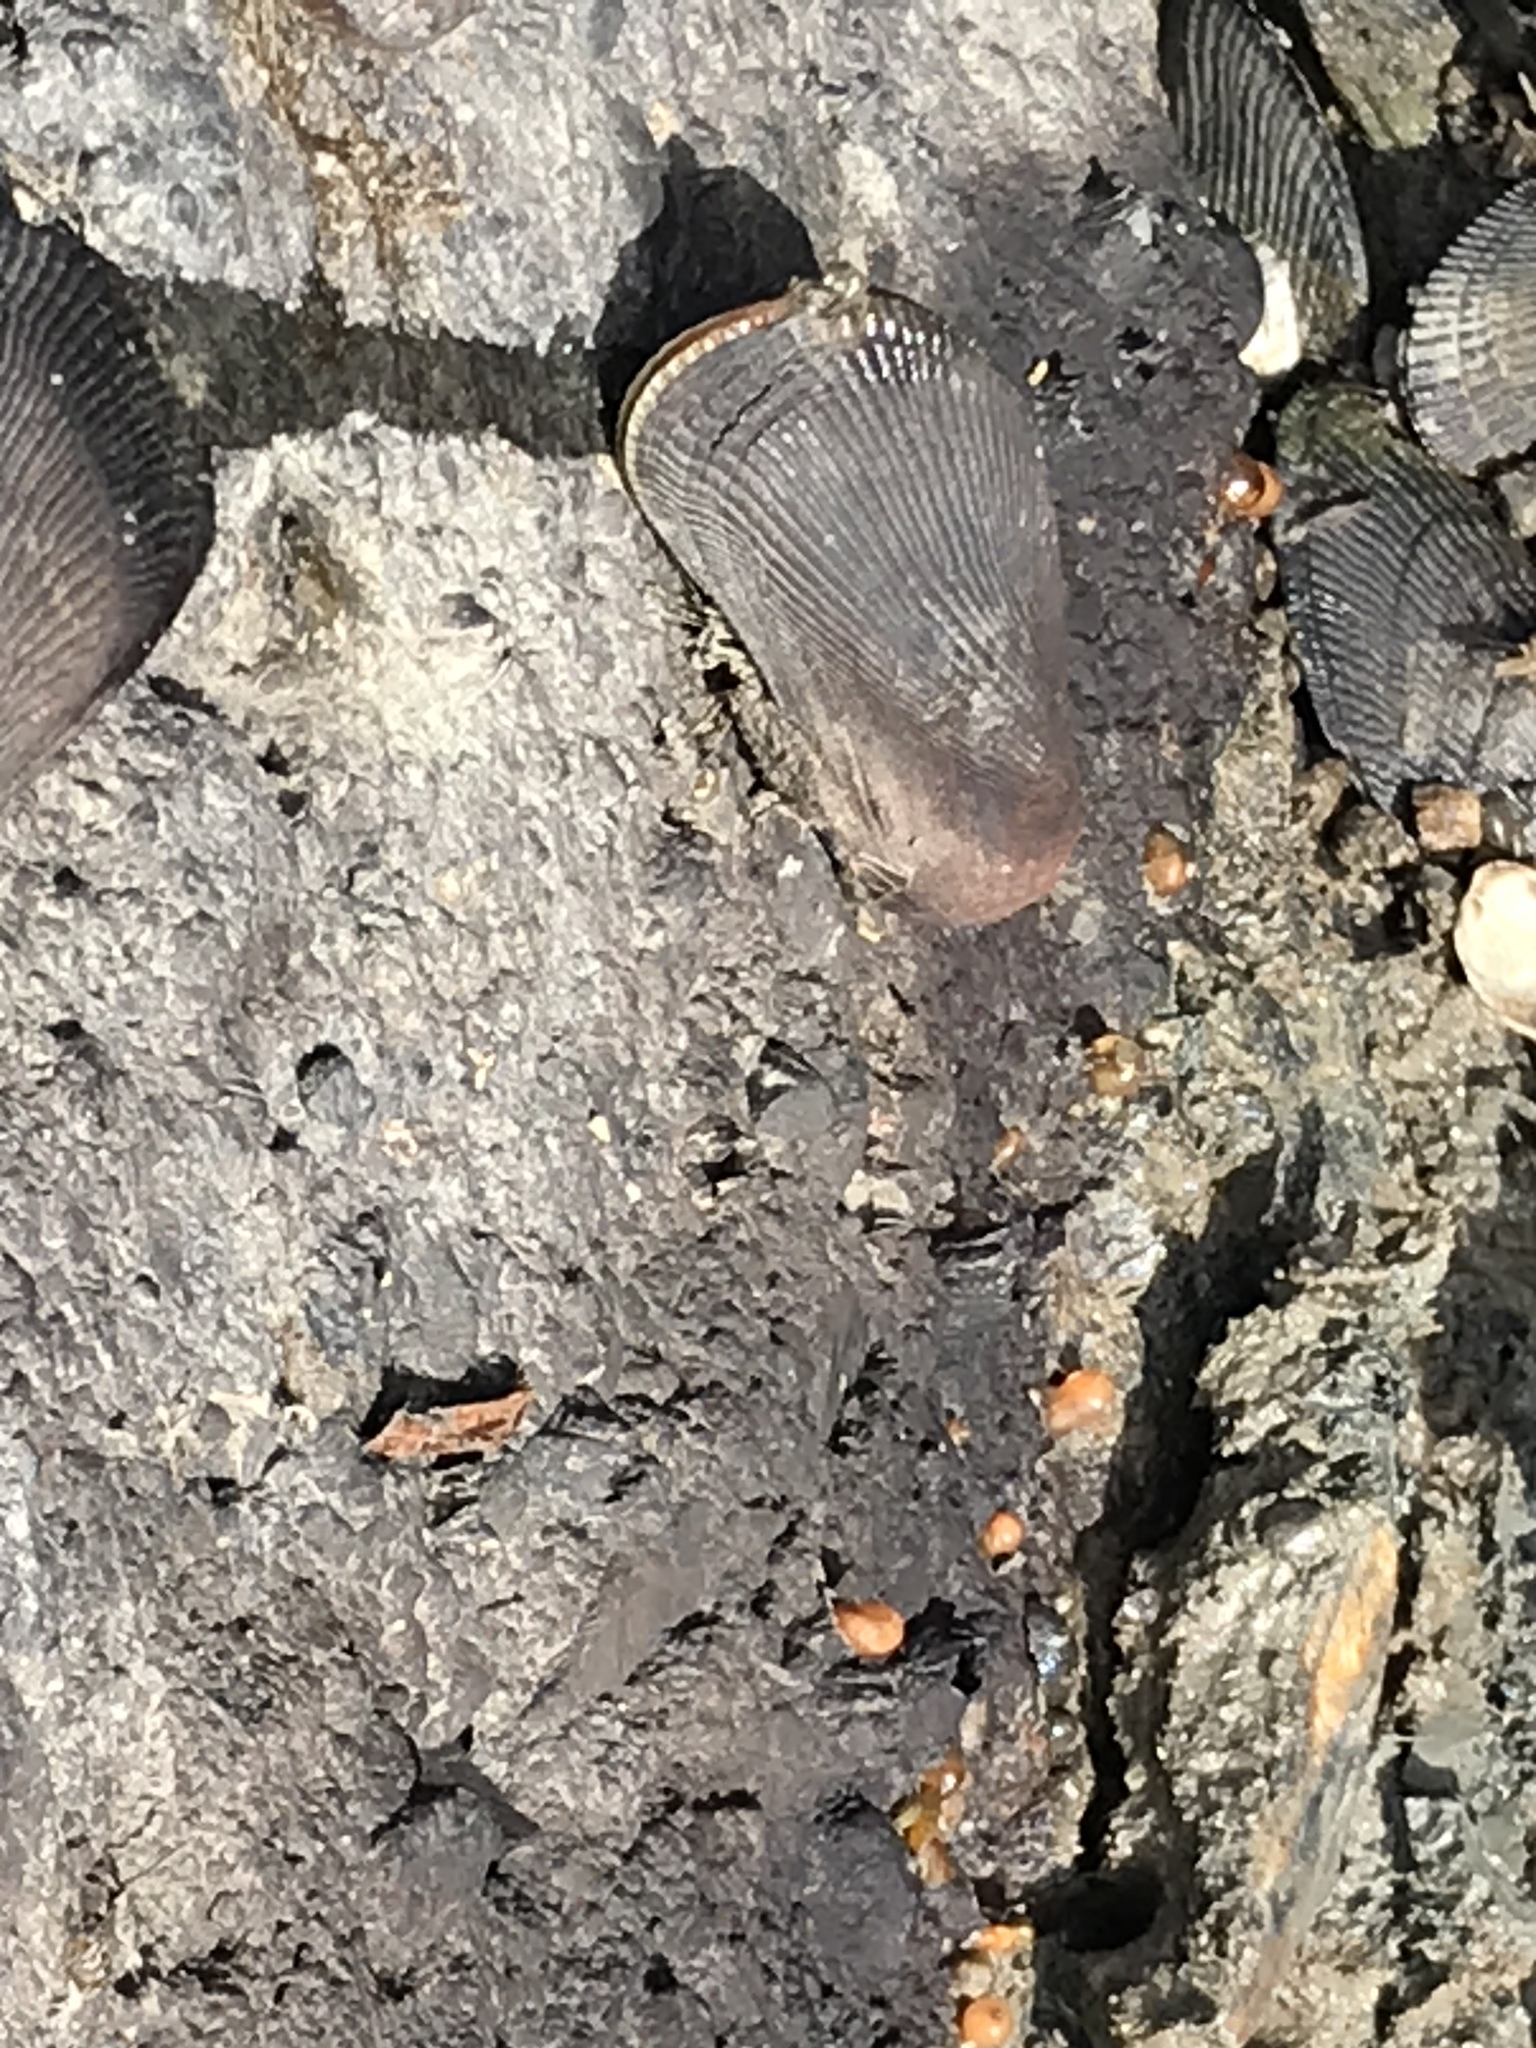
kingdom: Animalia
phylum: Mollusca
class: Bivalvia
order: Mytilida
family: Mytilidae
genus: Geukensia
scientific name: Geukensia demissa
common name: Ribbed mussel
